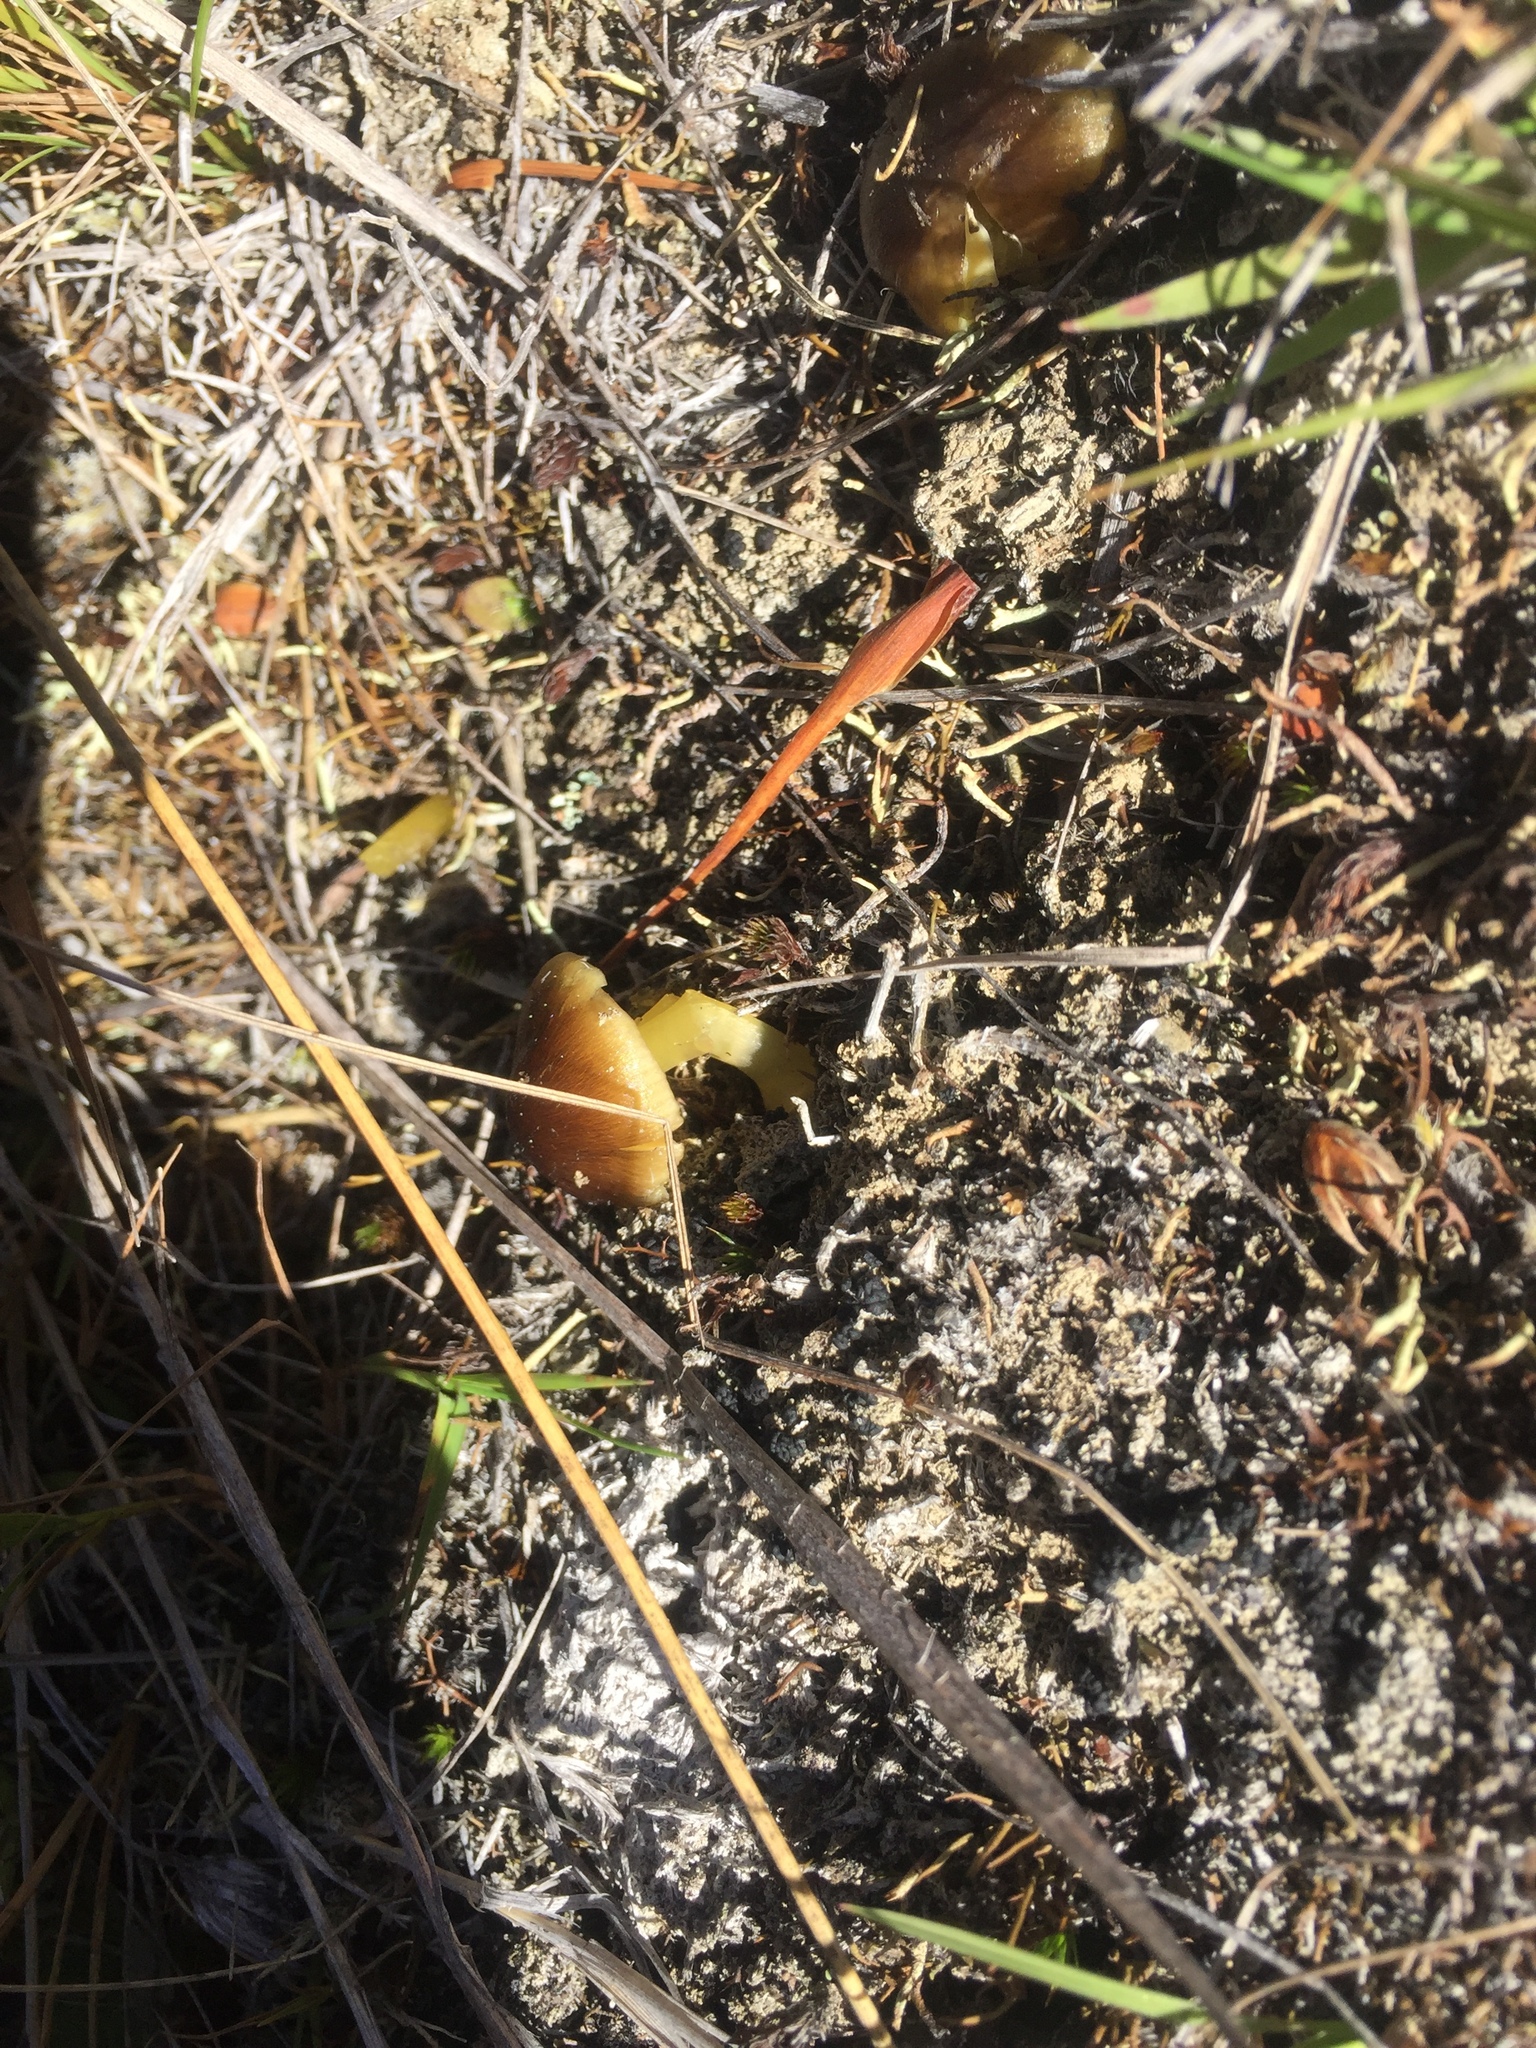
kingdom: Fungi
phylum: Basidiomycota
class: Agaricomycetes
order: Agaricales
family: Hygrophoraceae
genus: Hygrocybe
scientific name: Hygrocybe fuliginata
